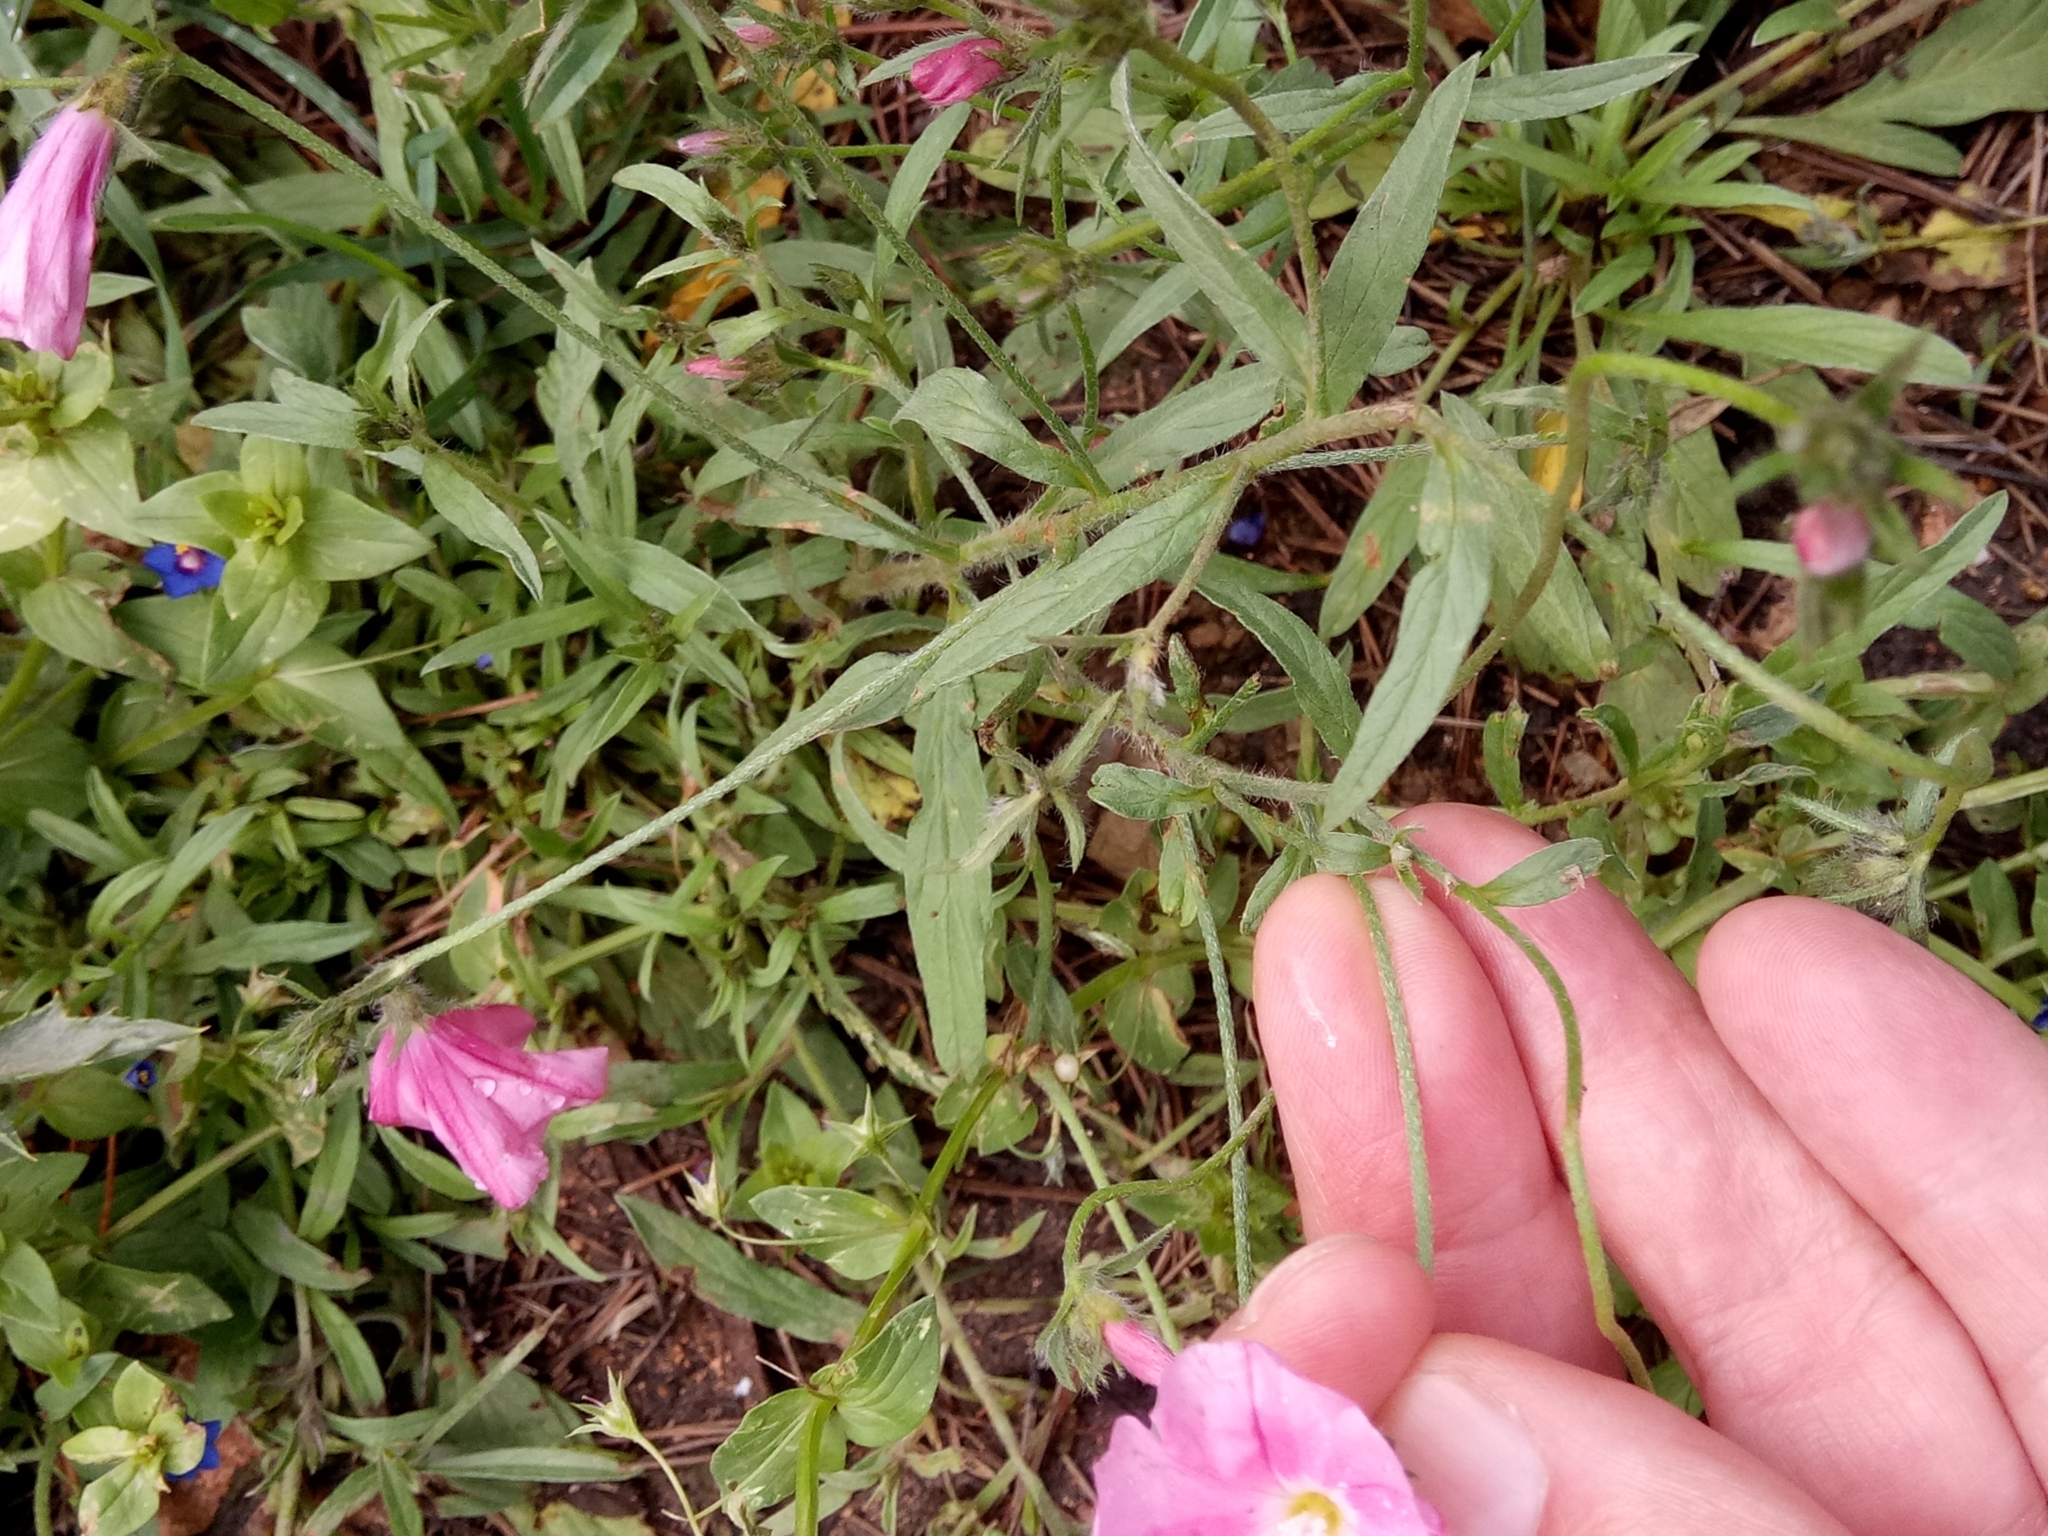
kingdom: Plantae
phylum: Tracheophyta
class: Magnoliopsida
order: Solanales
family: Convolvulaceae
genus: Convolvulus
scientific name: Convolvulus cantabrica
